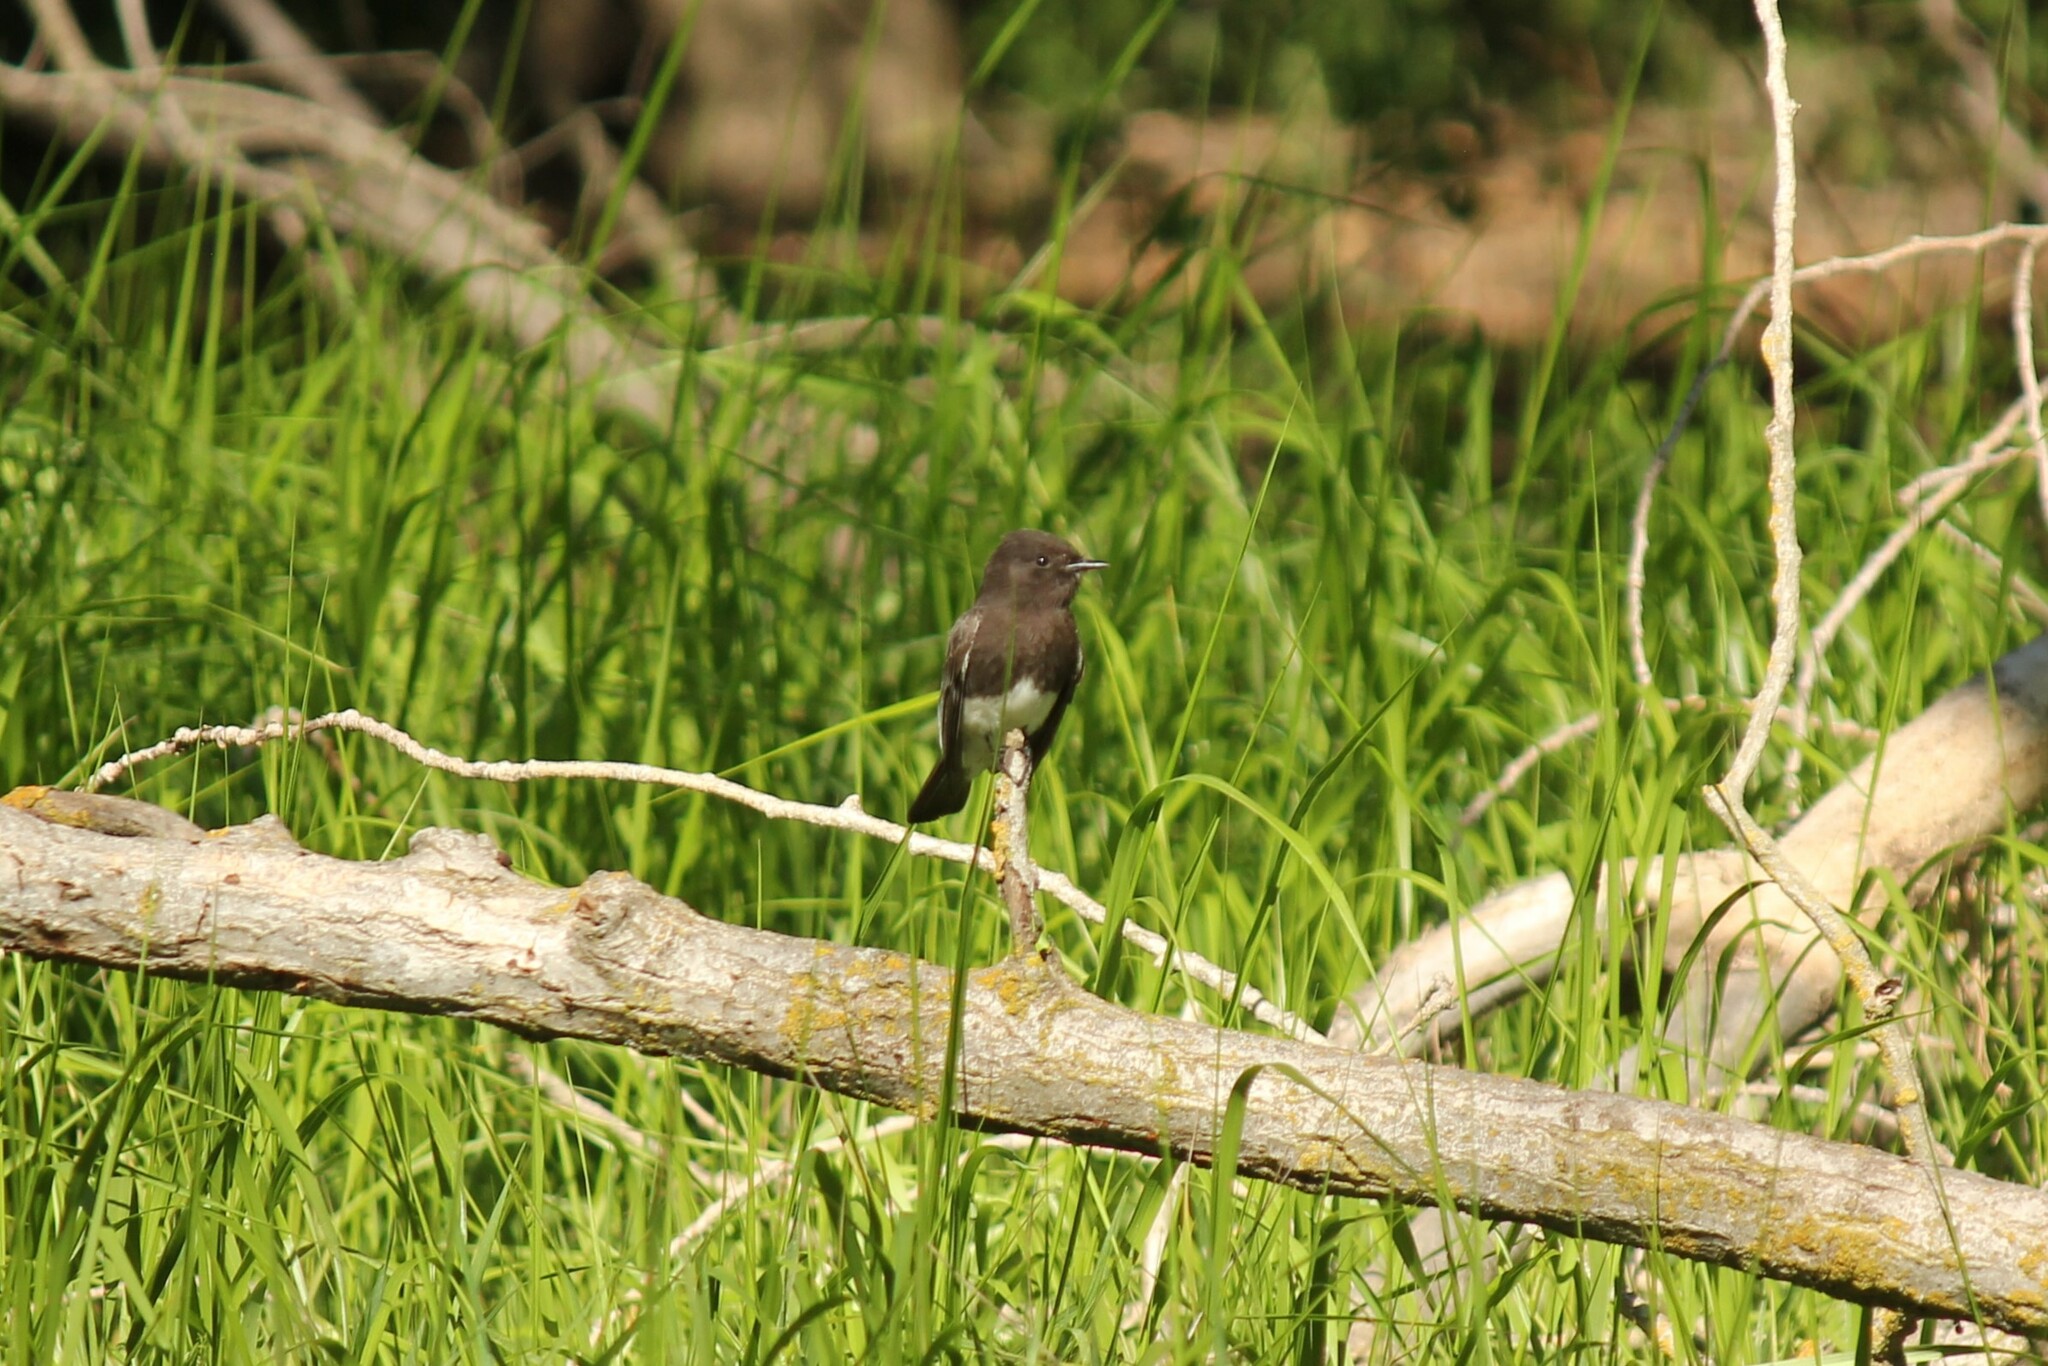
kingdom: Animalia
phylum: Chordata
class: Aves
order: Passeriformes
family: Tyrannidae
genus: Sayornis
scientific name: Sayornis nigricans
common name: Black phoebe
